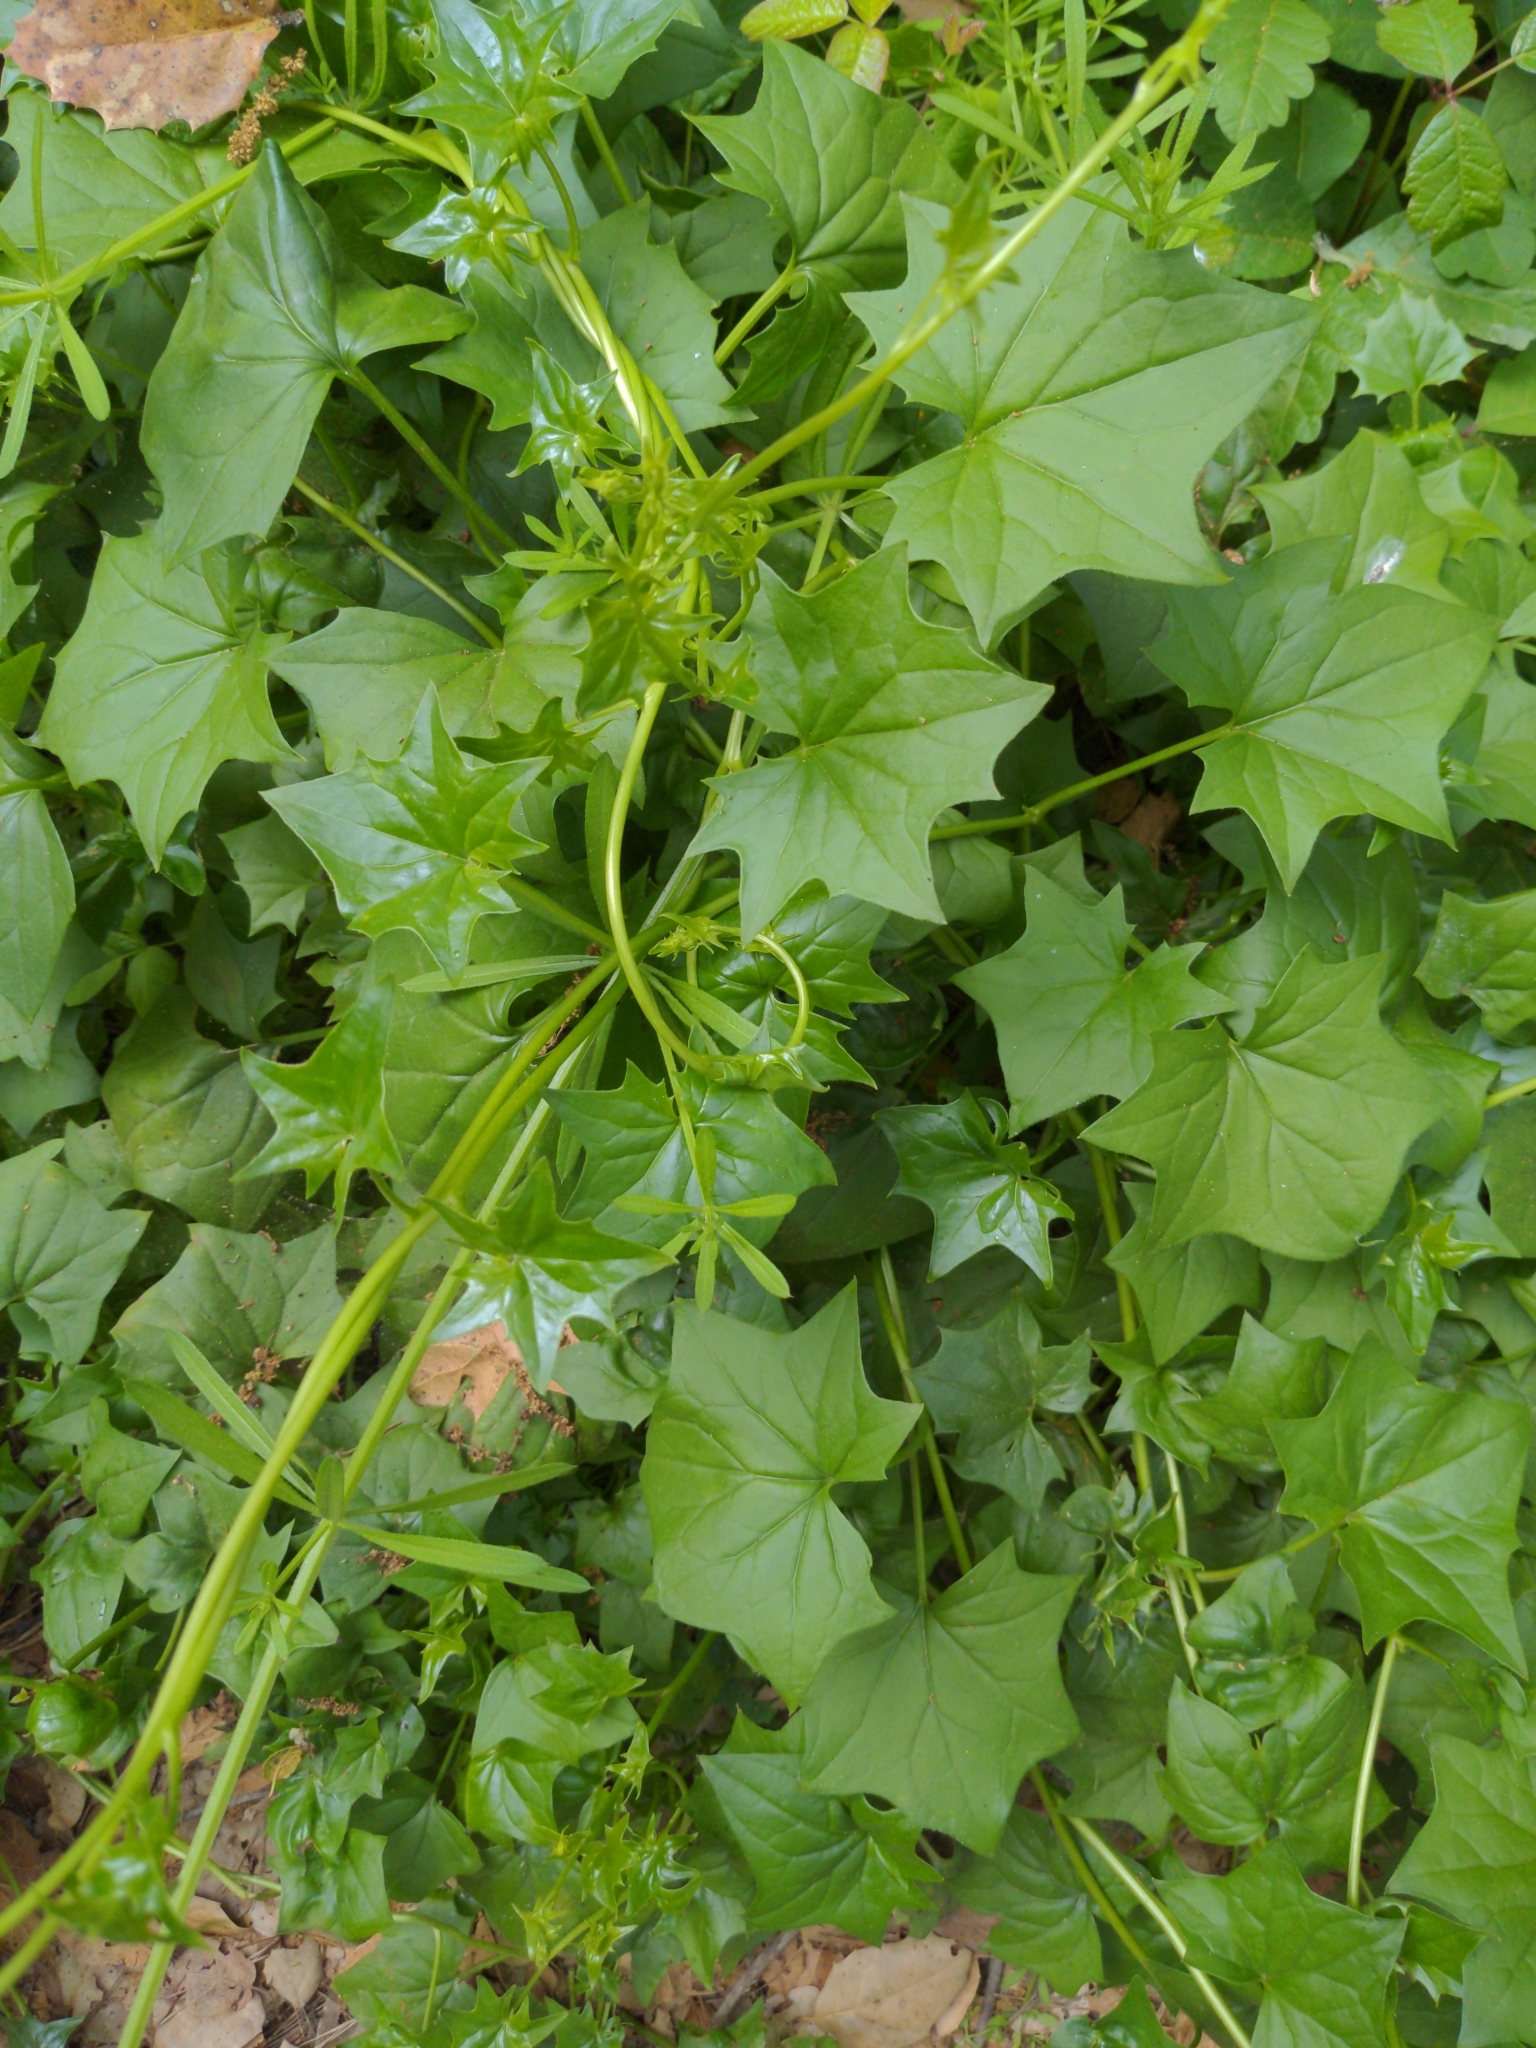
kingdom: Plantae
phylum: Tracheophyta
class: Magnoliopsida
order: Asterales
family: Asteraceae
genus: Delairea
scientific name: Delairea odorata
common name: Cape-ivy
